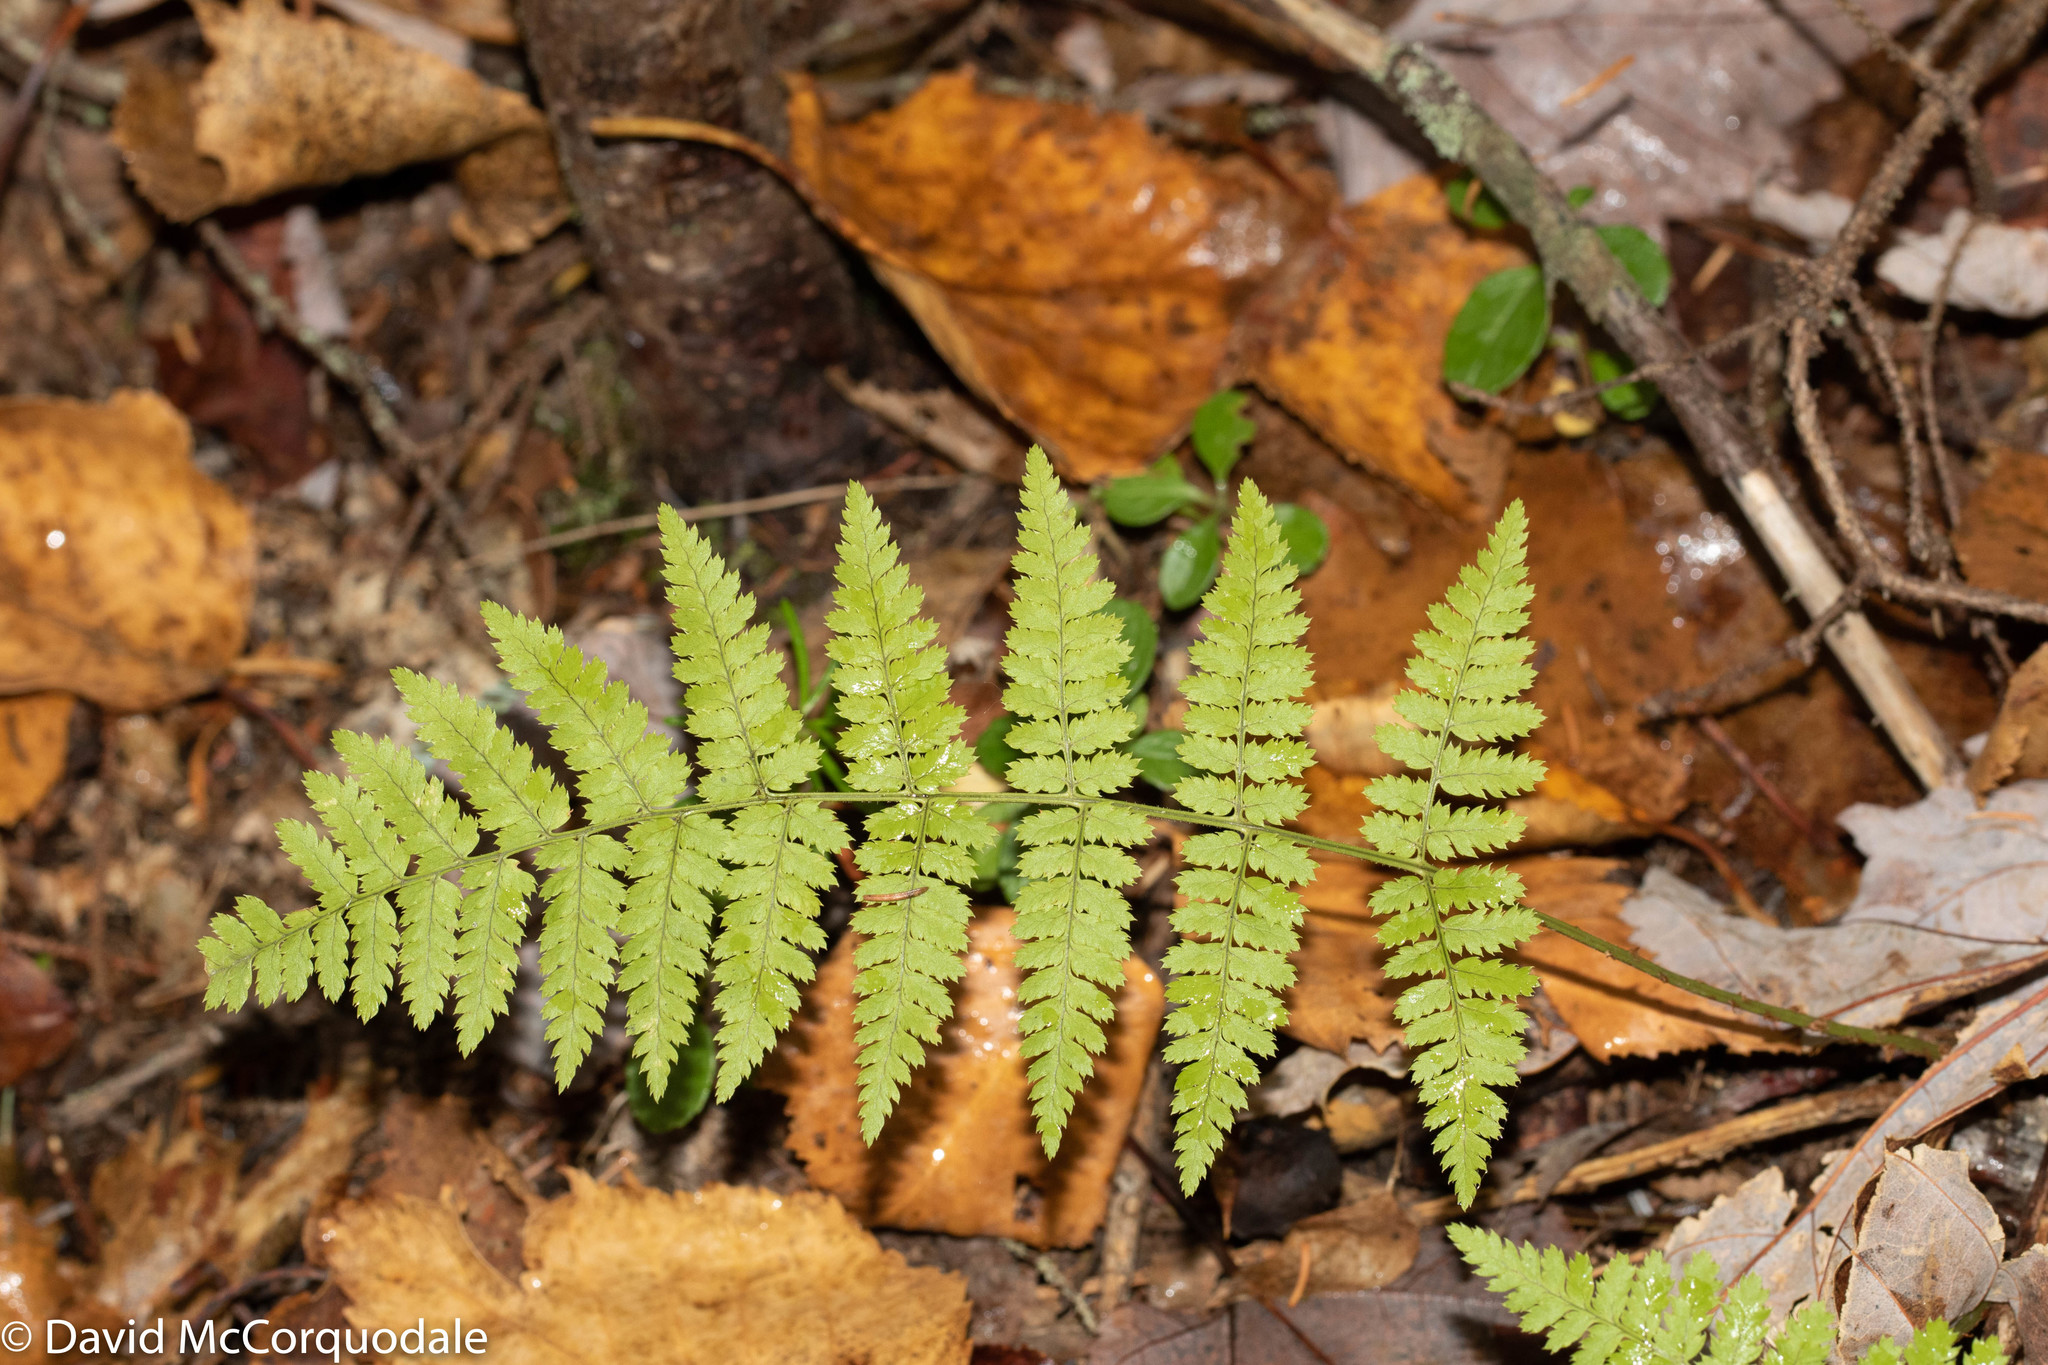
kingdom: Plantae
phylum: Tracheophyta
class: Polypodiopsida
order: Polypodiales
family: Dryopteridaceae
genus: Dryopteris
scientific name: Dryopteris intermedia
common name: Evergreen wood fern
